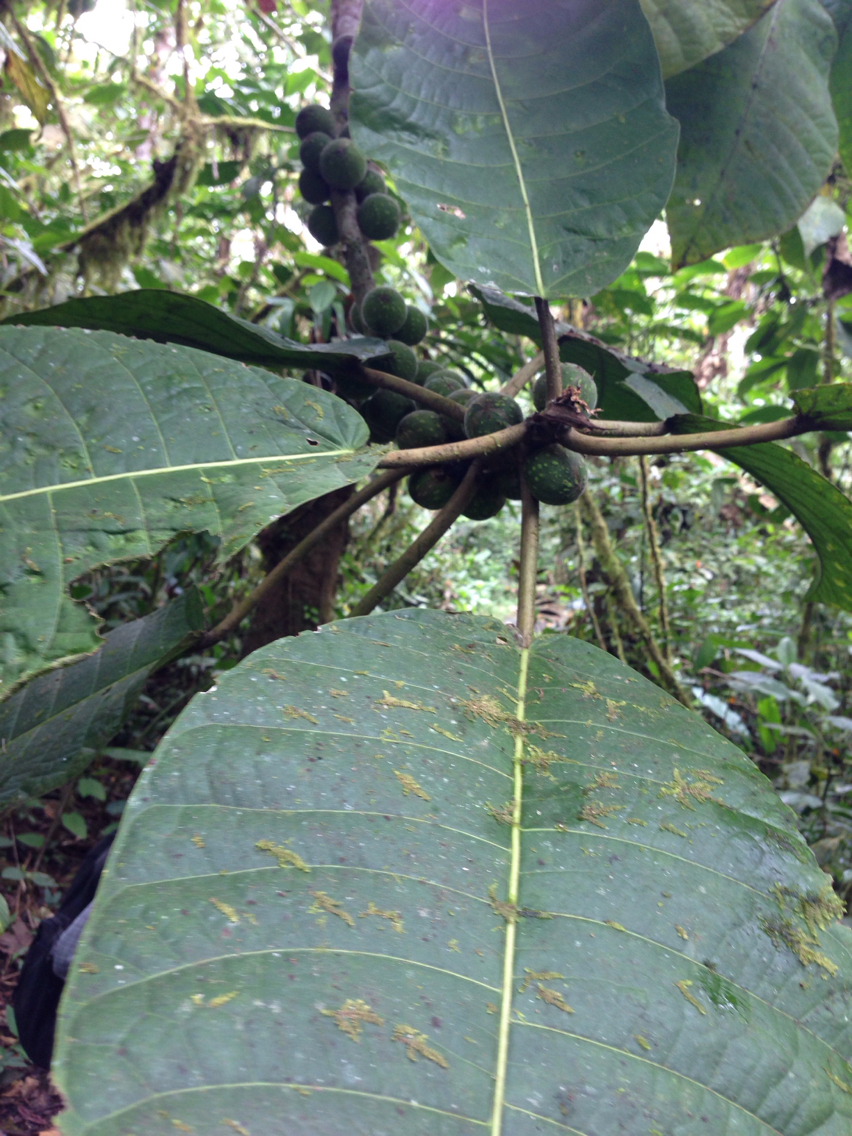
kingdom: Plantae
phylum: Tracheophyta
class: Magnoliopsida
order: Rosales
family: Moraceae
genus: Ficus
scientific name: Ficus macbridei
